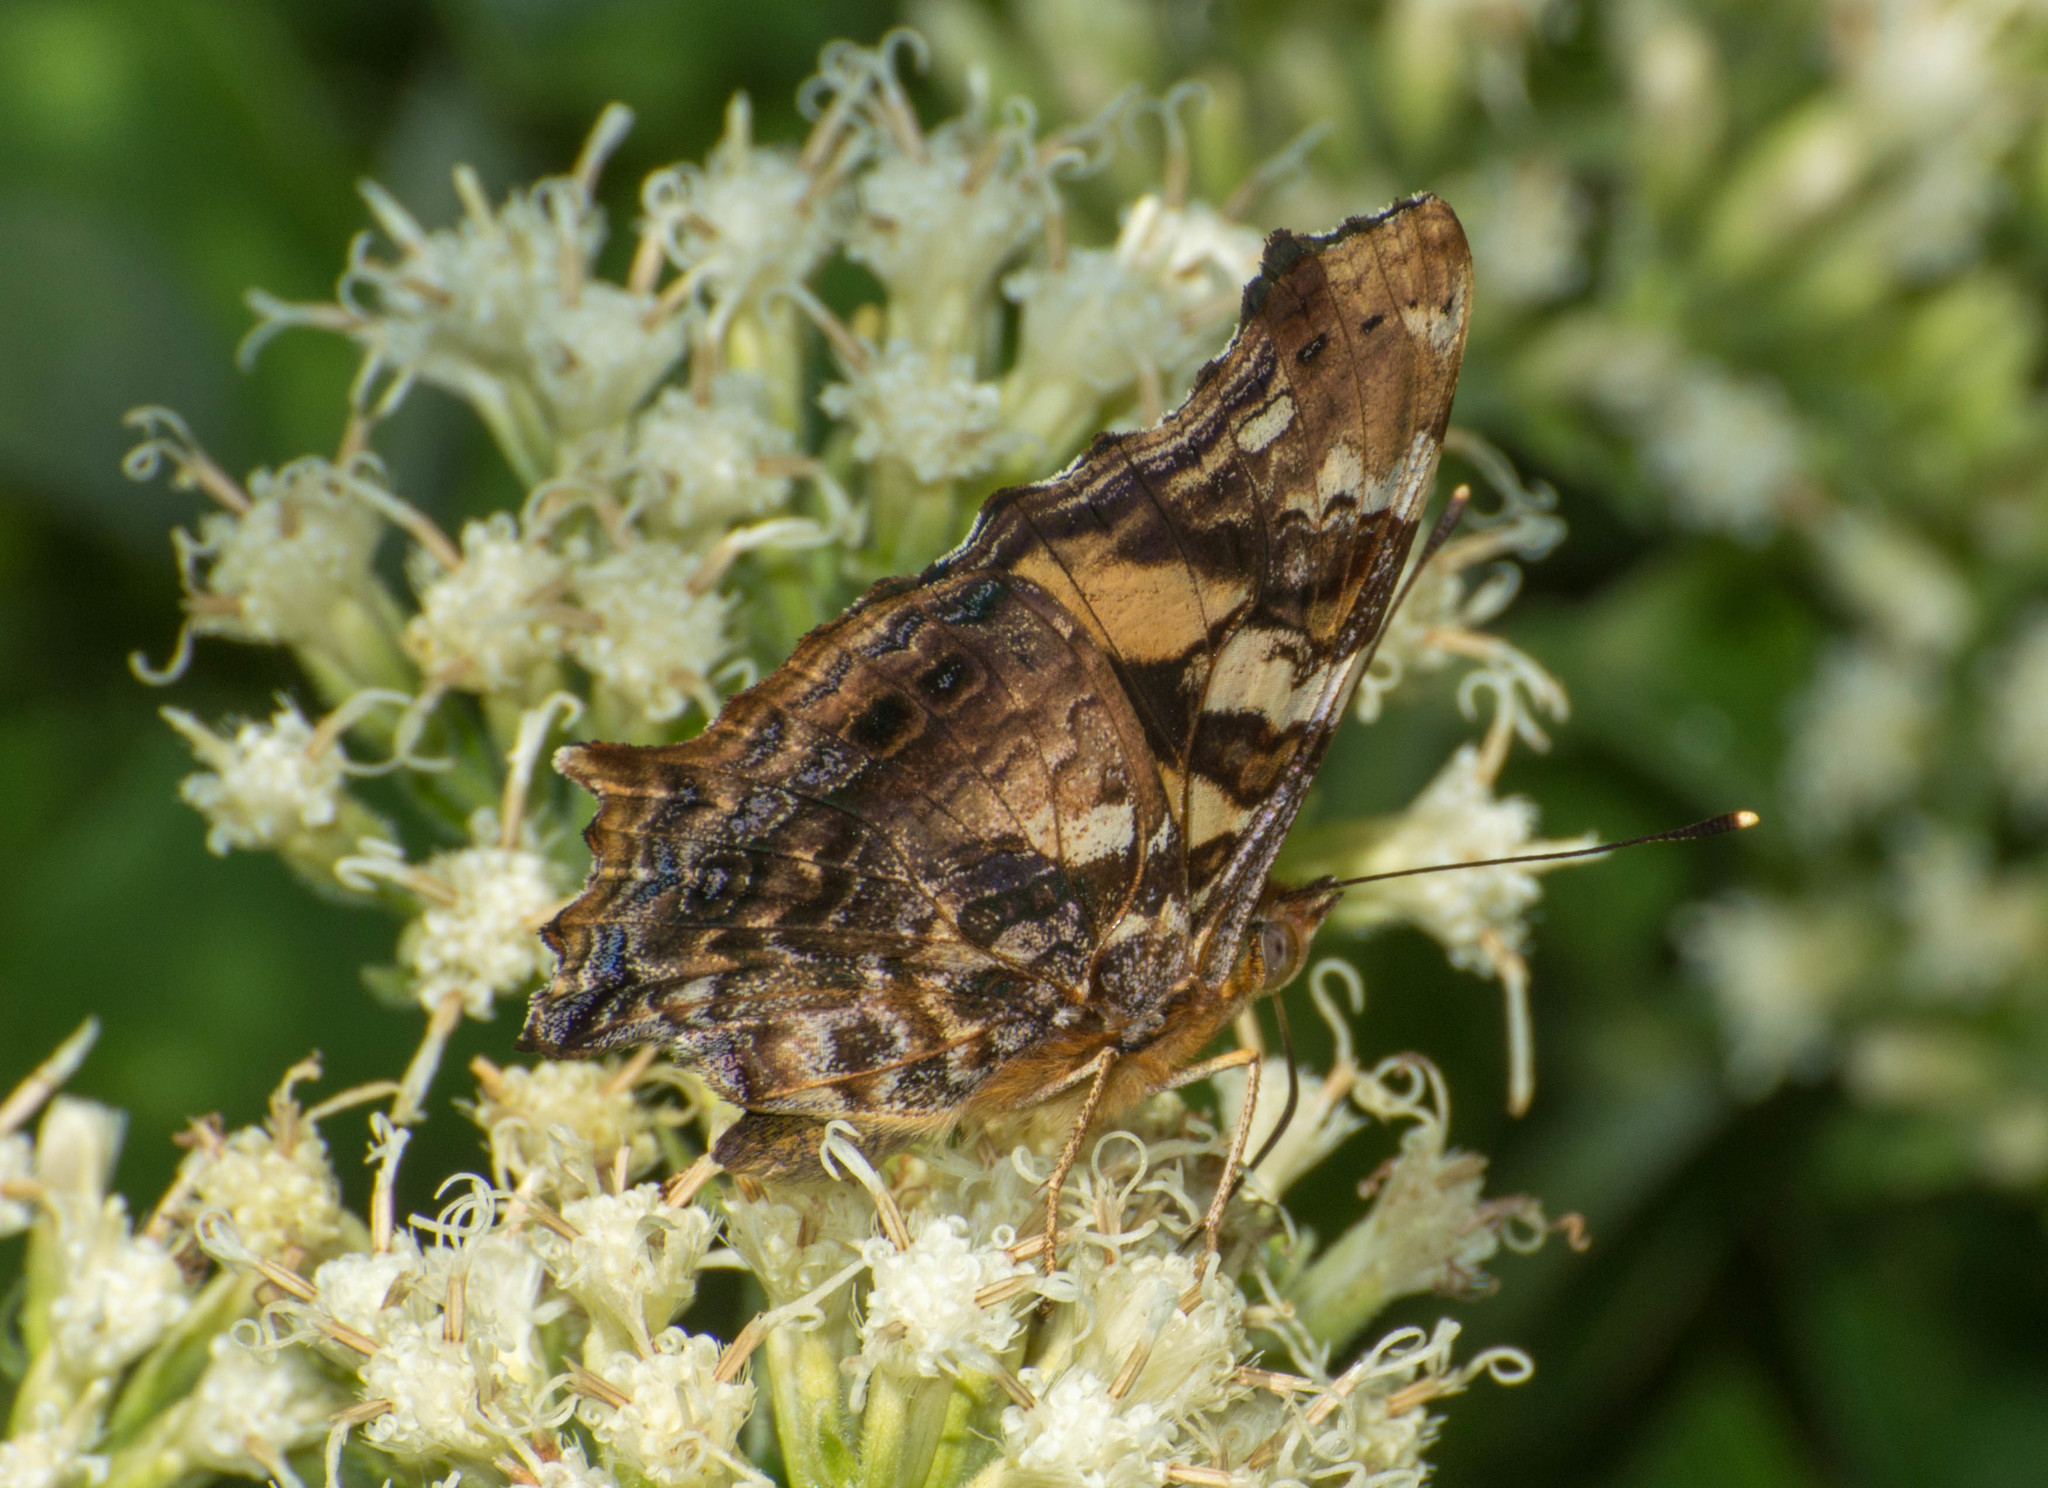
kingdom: Animalia
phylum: Arthropoda
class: Insecta
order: Lepidoptera
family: Nymphalidae
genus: Hypanartia
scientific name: Hypanartia bella
